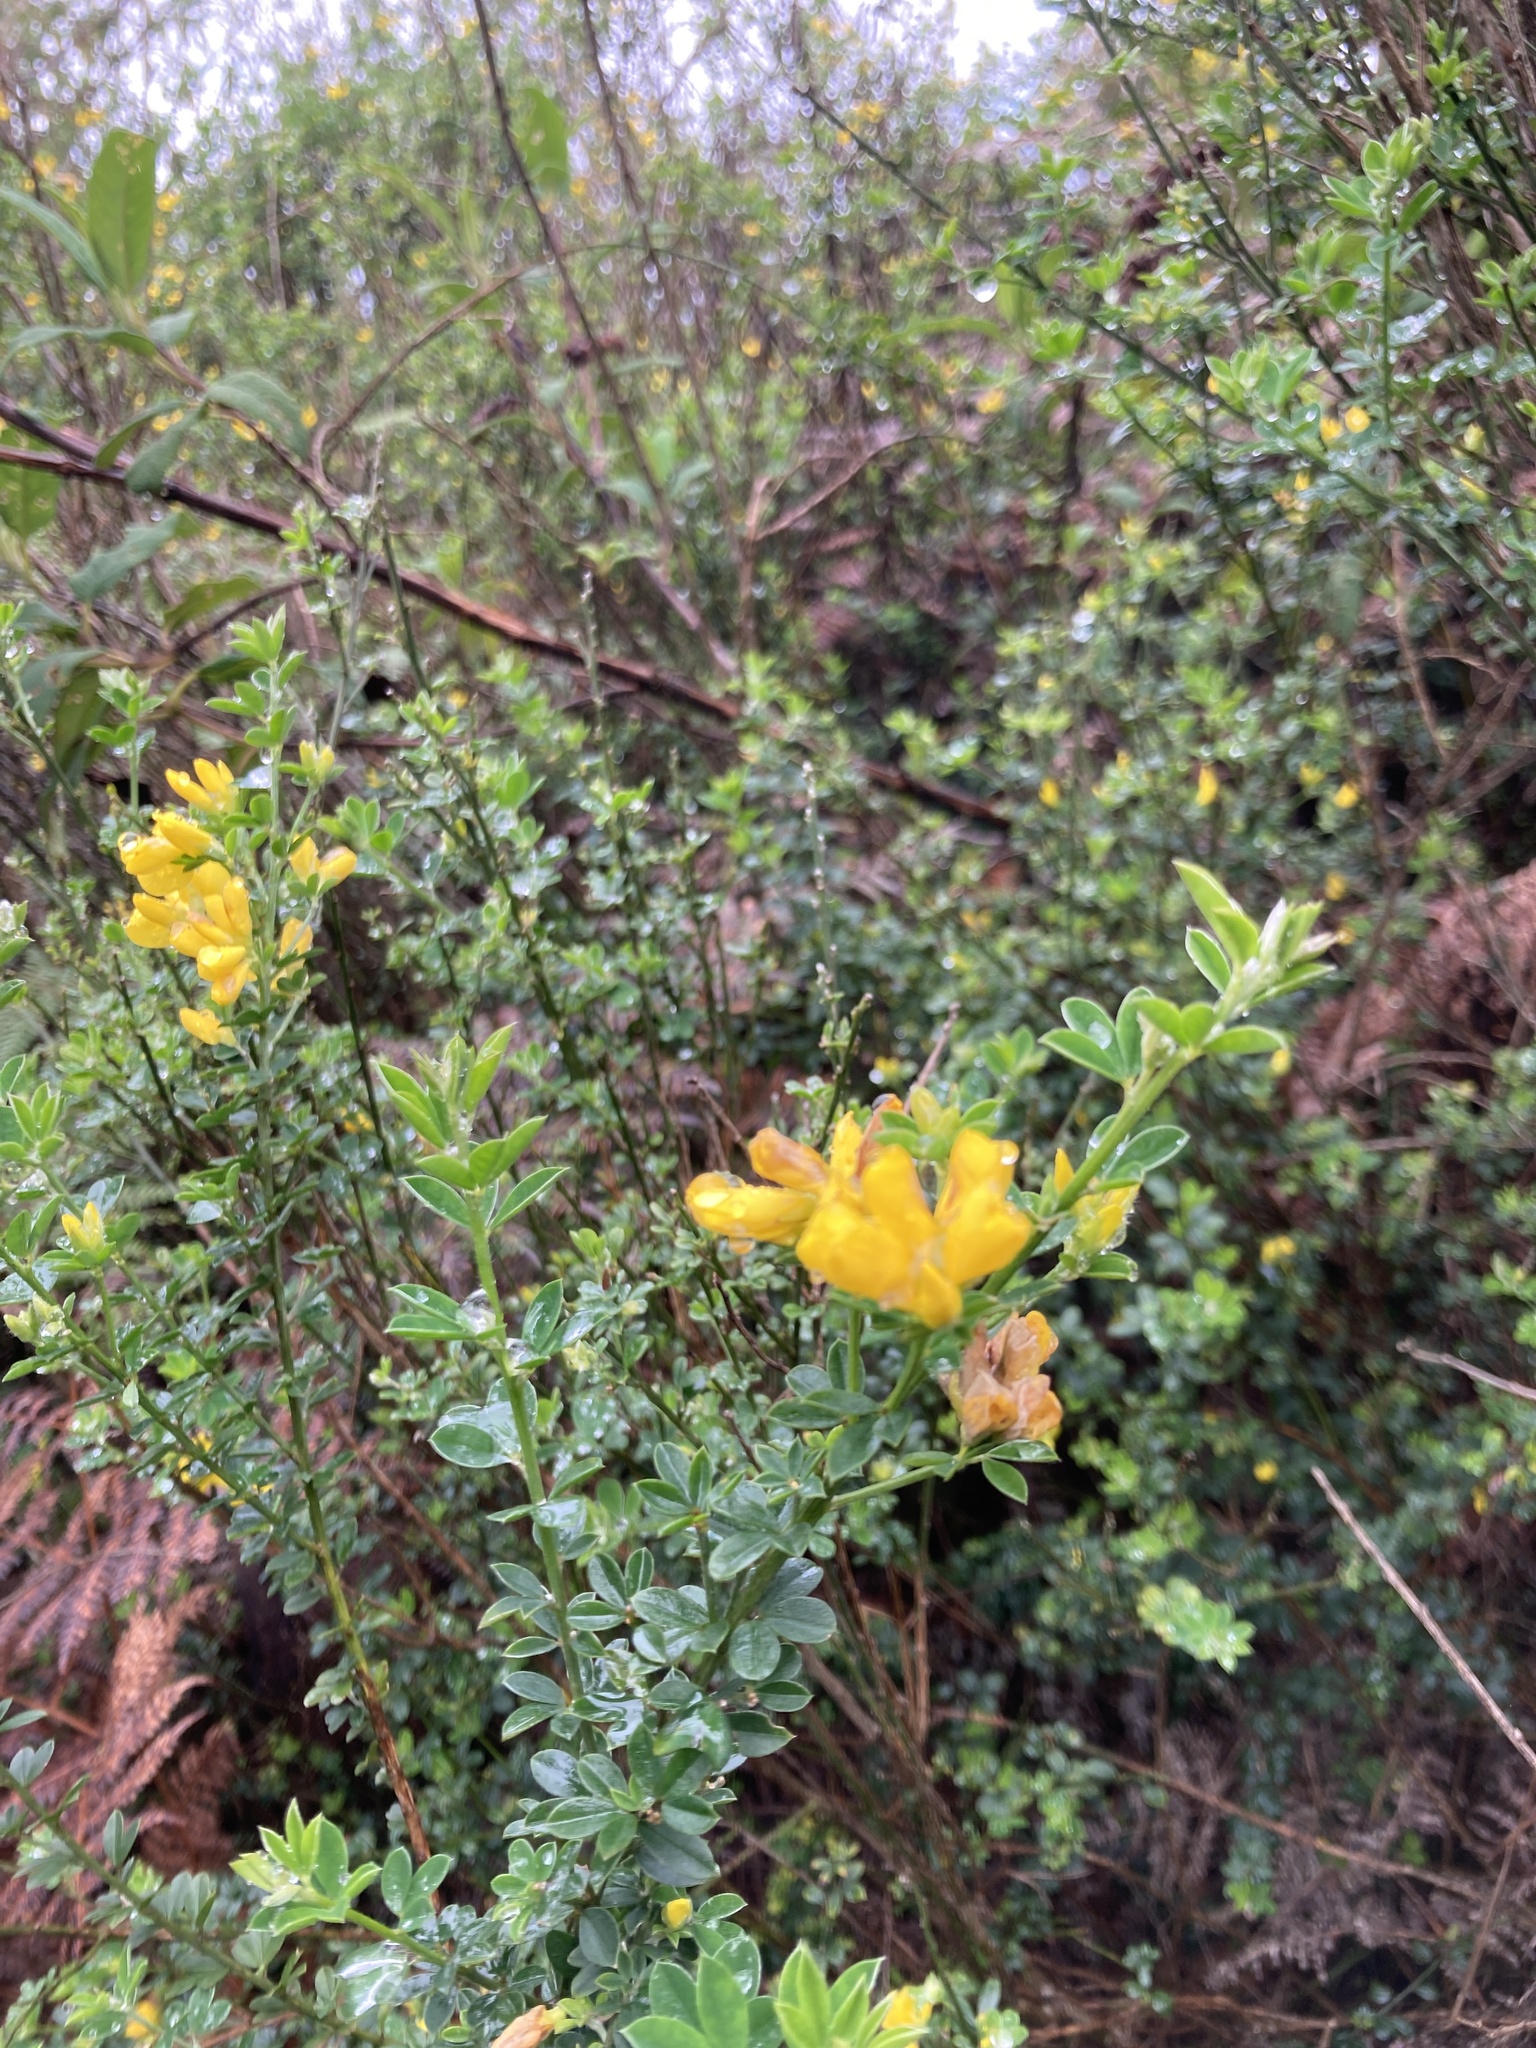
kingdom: Plantae
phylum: Tracheophyta
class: Magnoliopsida
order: Fabales
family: Fabaceae
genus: Genista
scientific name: Genista monspessulana
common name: Montpellier broom
